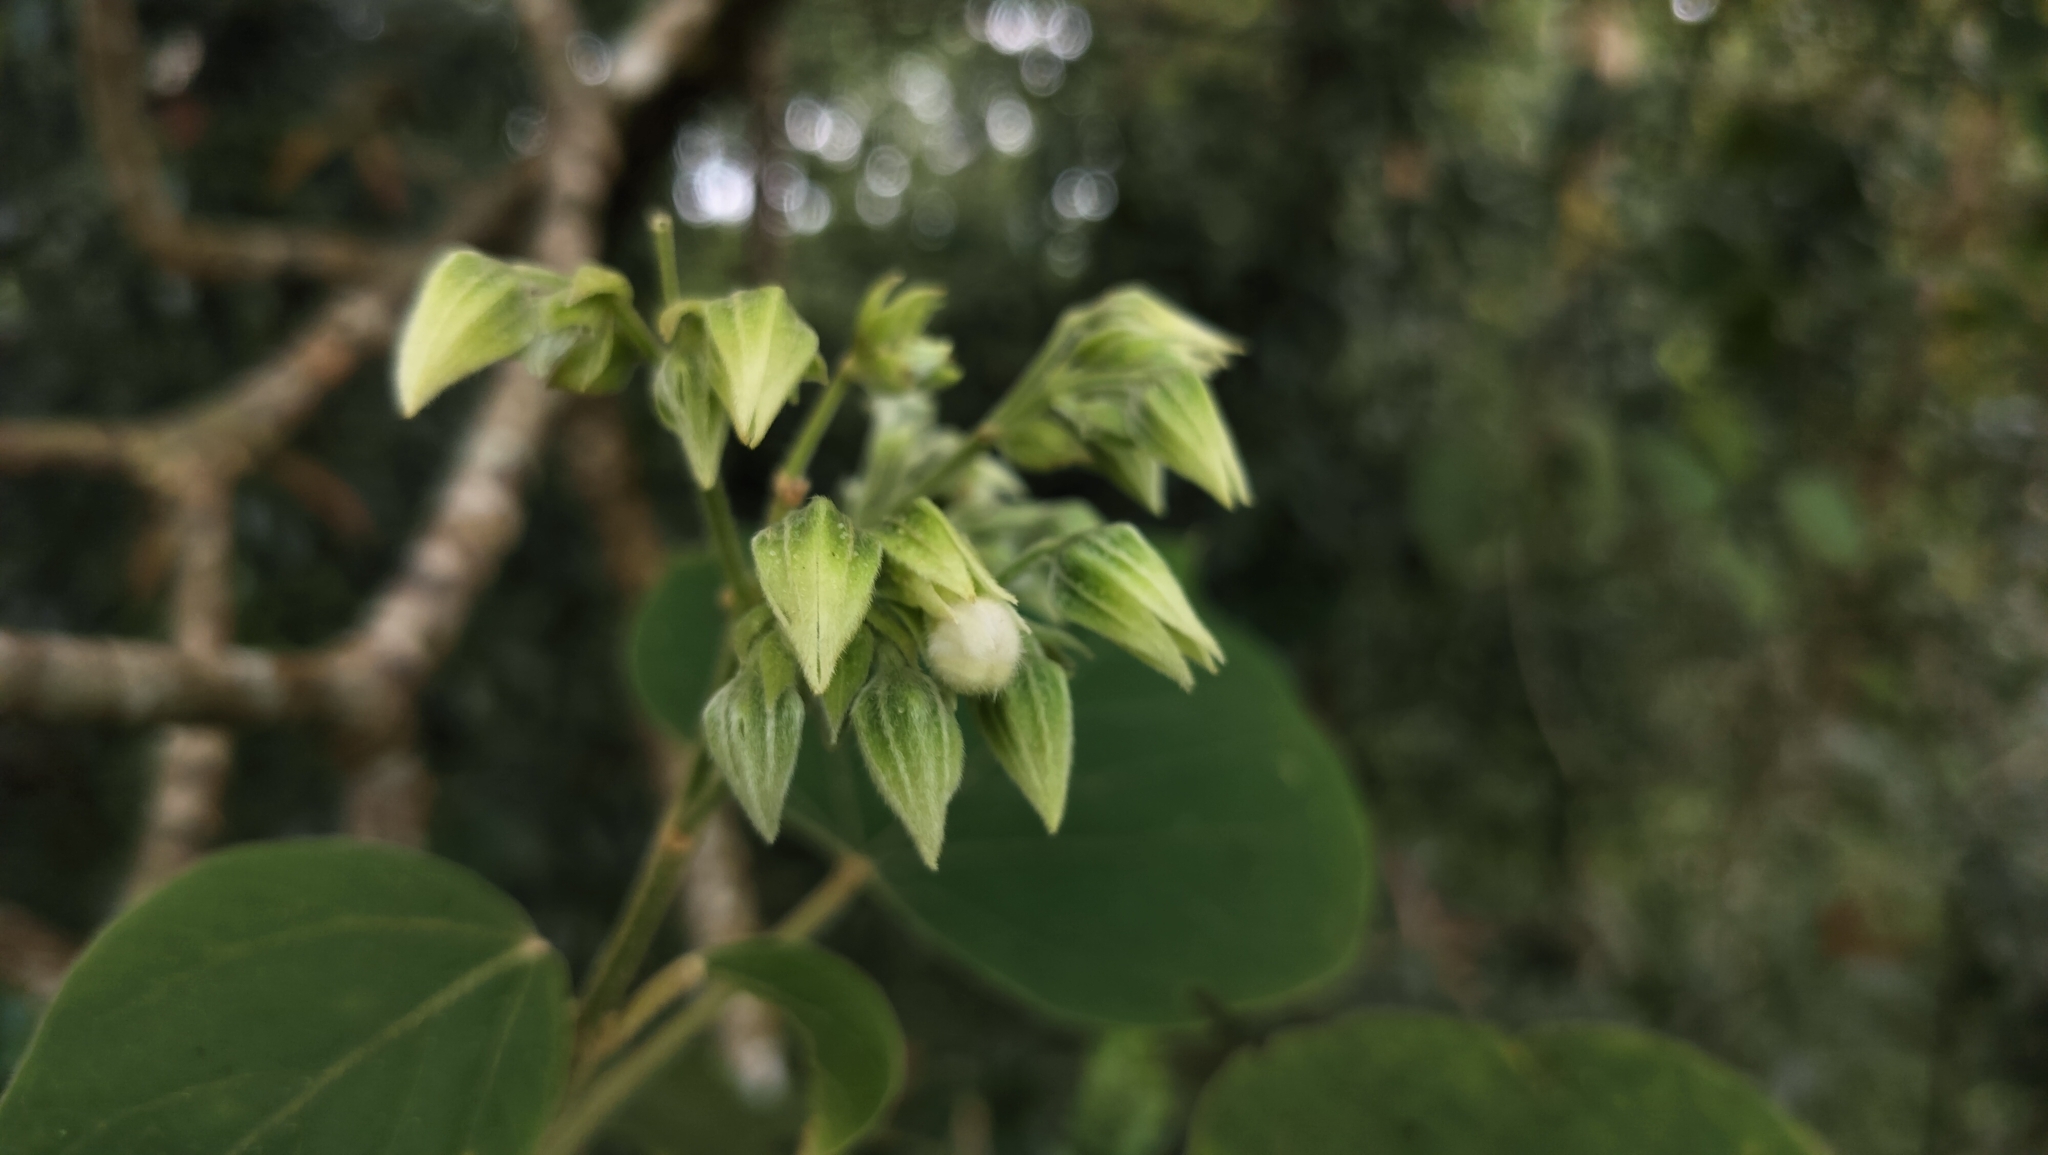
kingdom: Plantae
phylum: Tracheophyta
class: Magnoliopsida
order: Lamiales
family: Lamiaceae
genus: Clerodendrum
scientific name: Clerodendrum infortunatum
